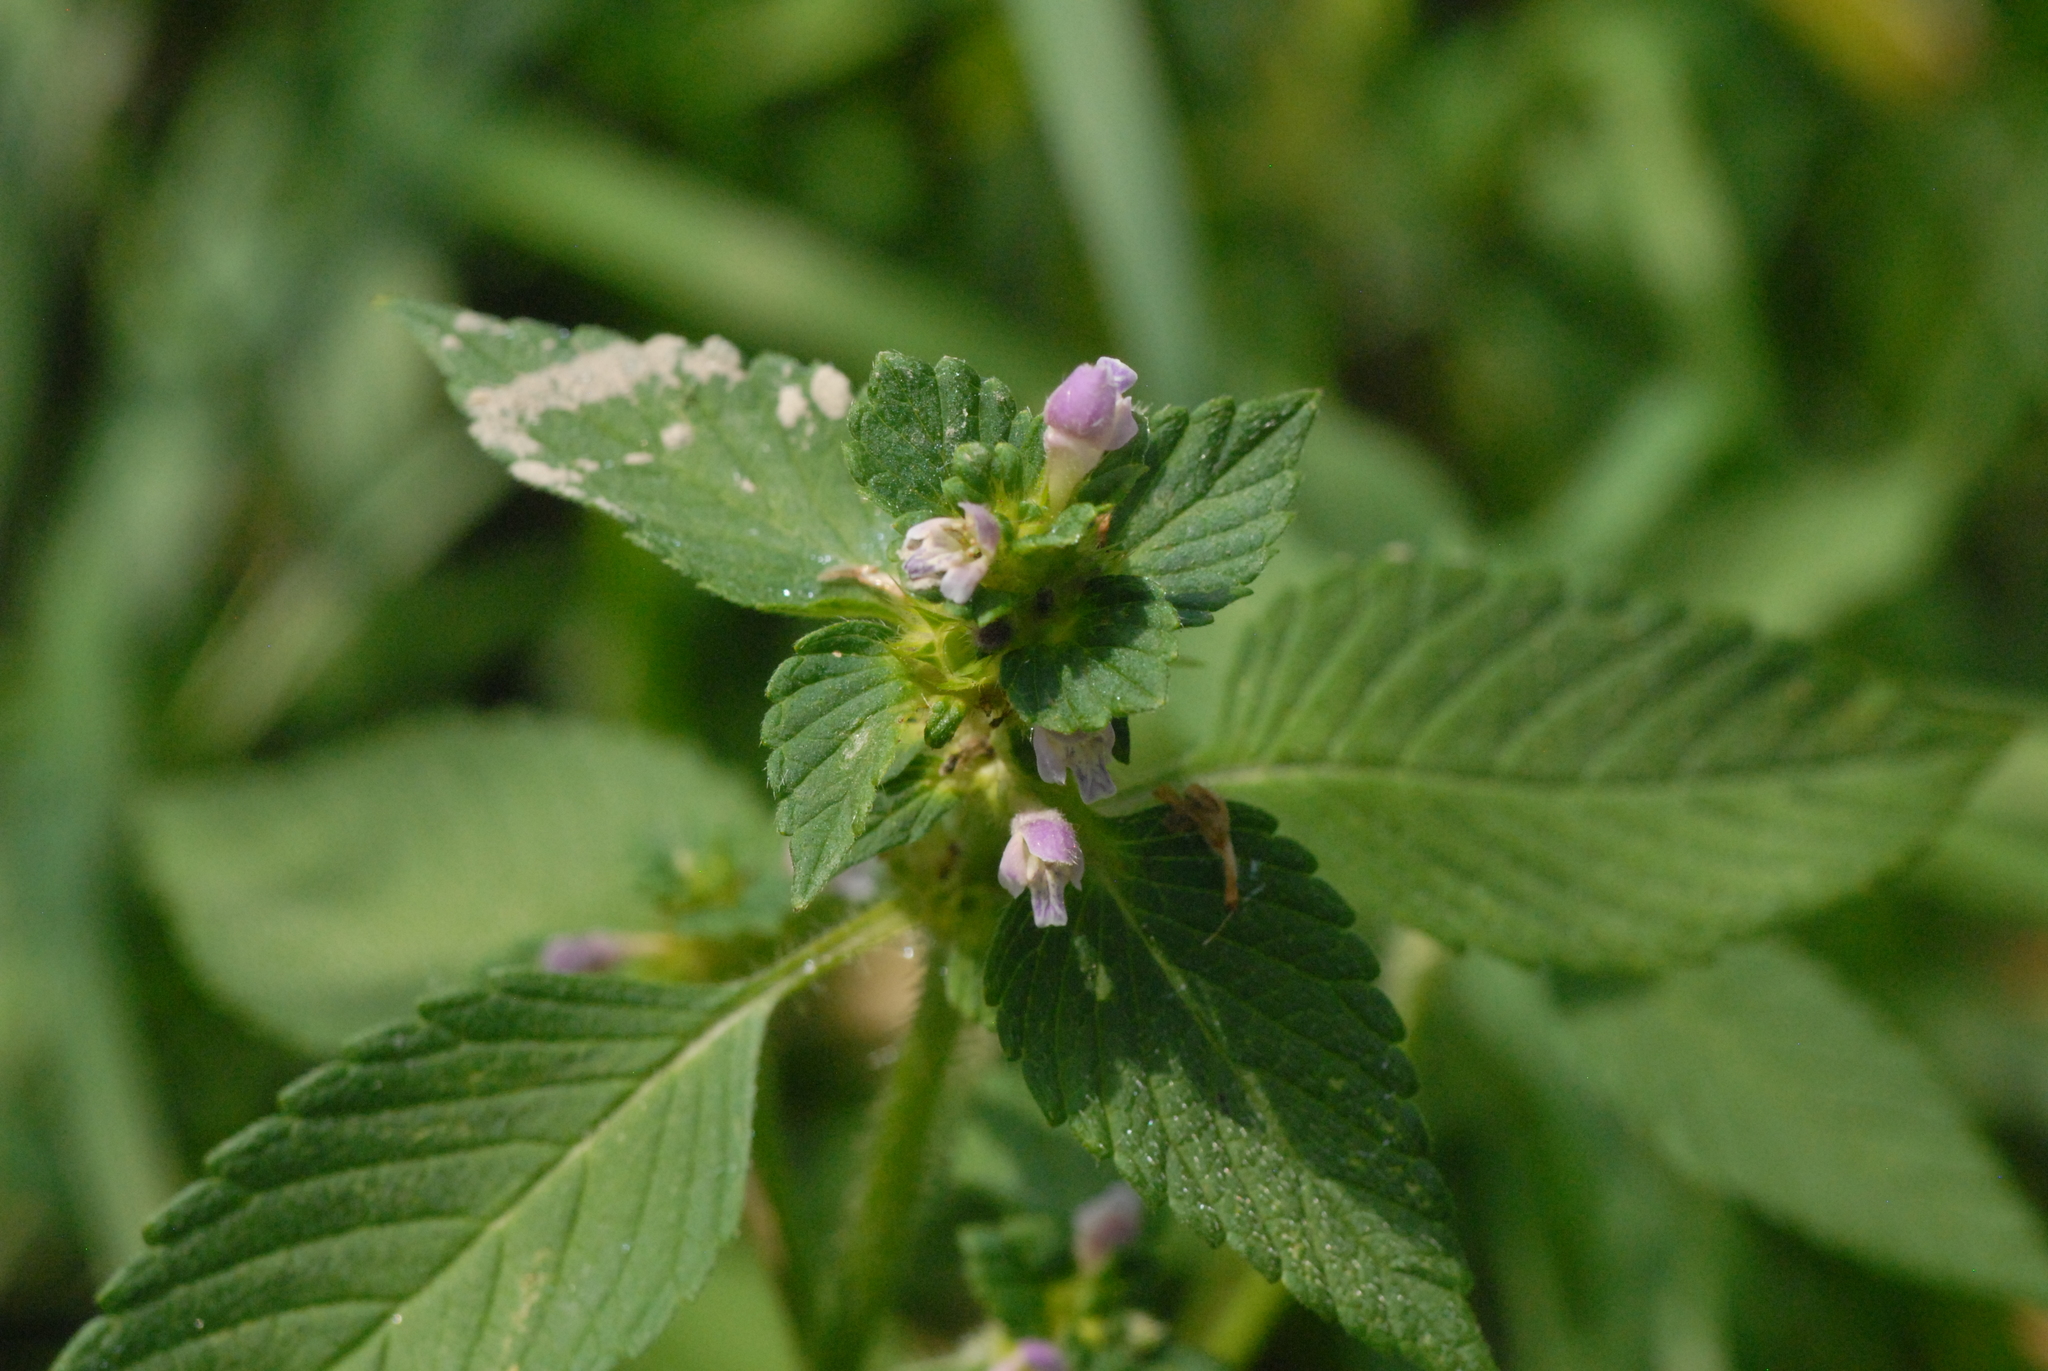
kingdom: Plantae
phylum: Tracheophyta
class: Magnoliopsida
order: Lamiales
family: Lamiaceae
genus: Galeopsis
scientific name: Galeopsis bifida
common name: Bifid hemp-nettle
